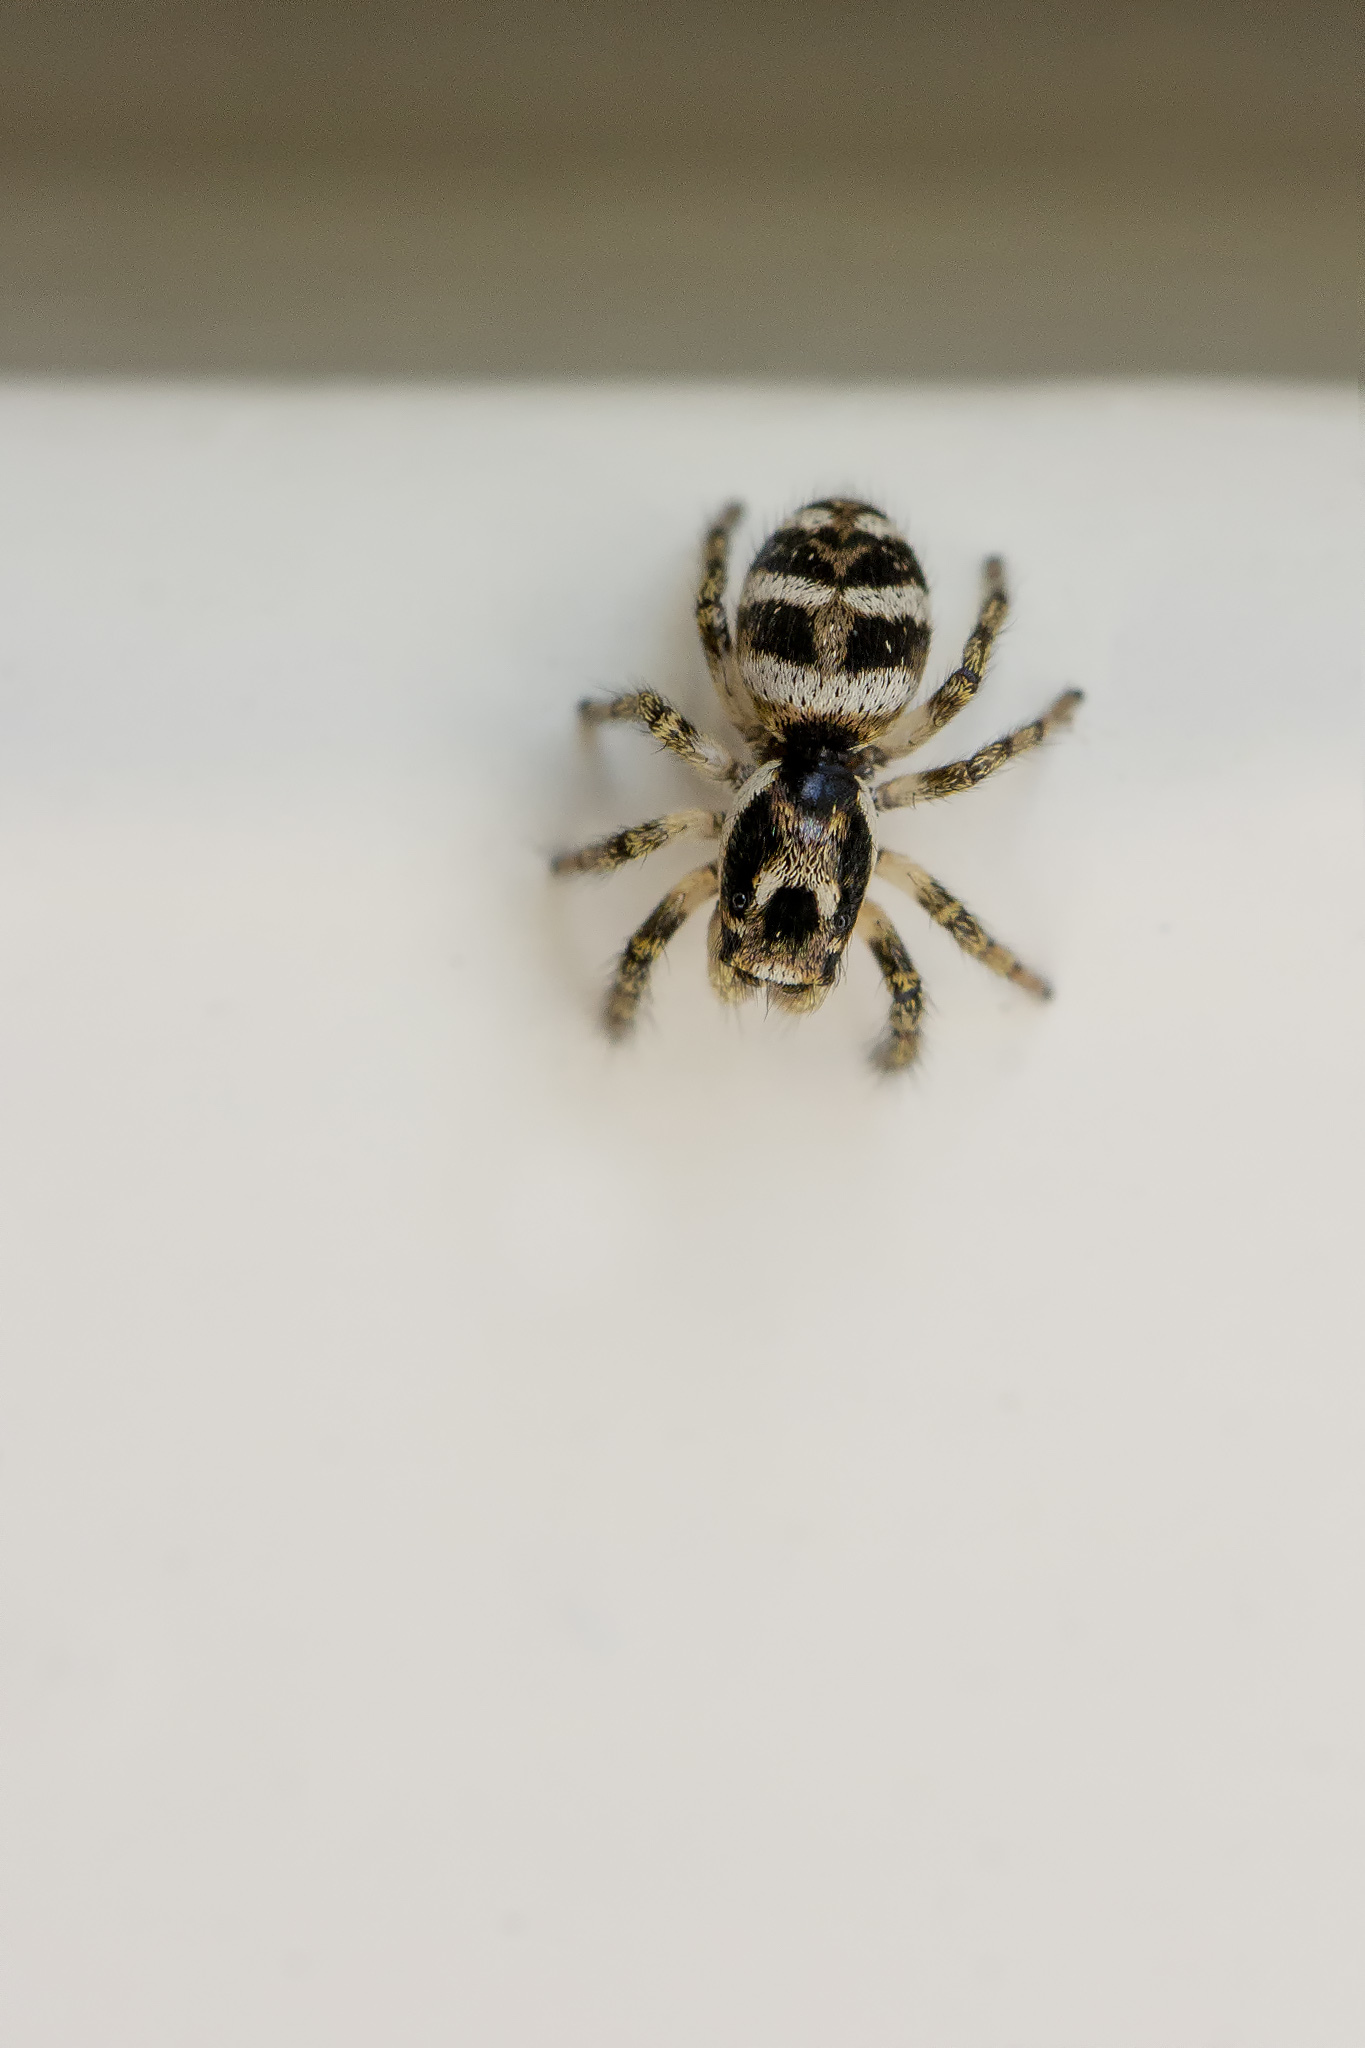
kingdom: Animalia
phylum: Arthropoda
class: Arachnida
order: Araneae
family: Salticidae
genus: Salticus
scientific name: Salticus scenicus
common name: Zebra jumper
